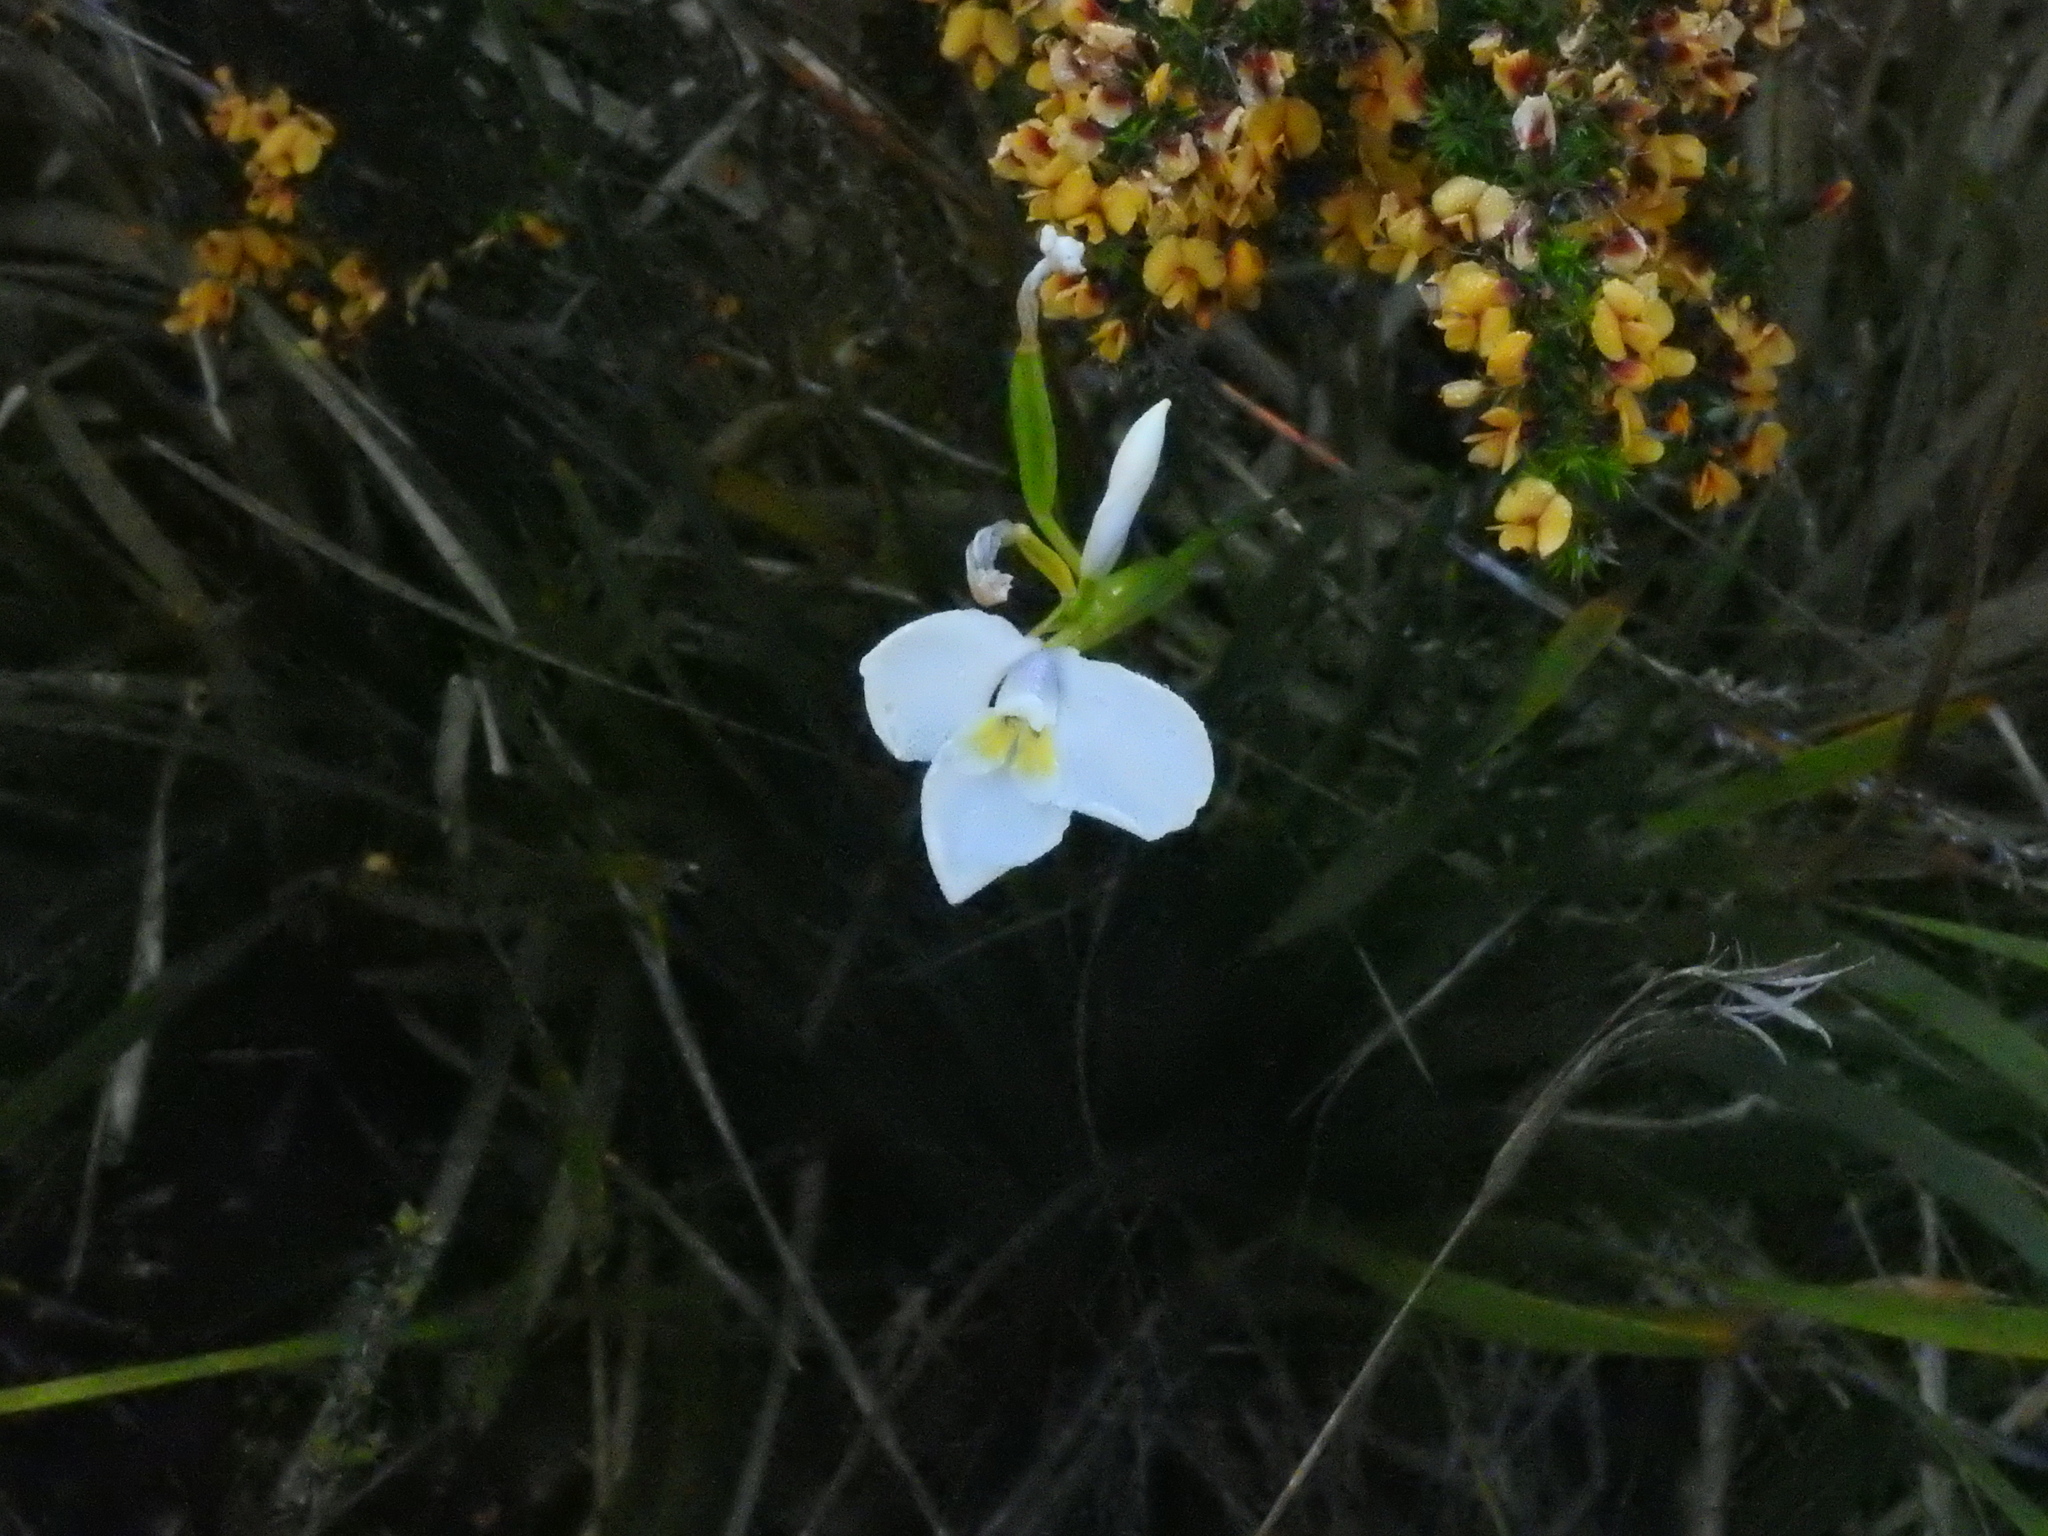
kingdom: Plantae
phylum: Tracheophyta
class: Liliopsida
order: Asparagales
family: Iridaceae
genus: Diplarrena
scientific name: Diplarrena moraea
